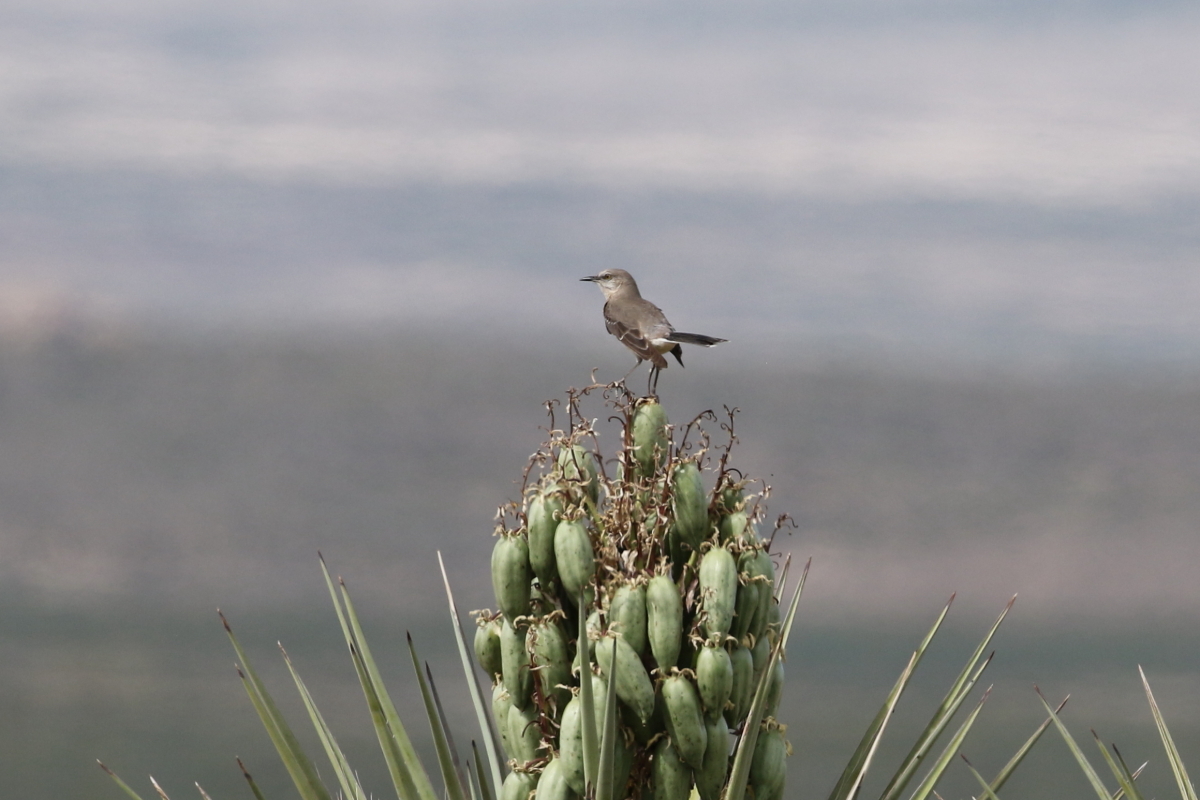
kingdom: Animalia
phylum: Chordata
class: Aves
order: Passeriformes
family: Mimidae
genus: Mimus
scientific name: Mimus polyglottos
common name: Northern mockingbird
